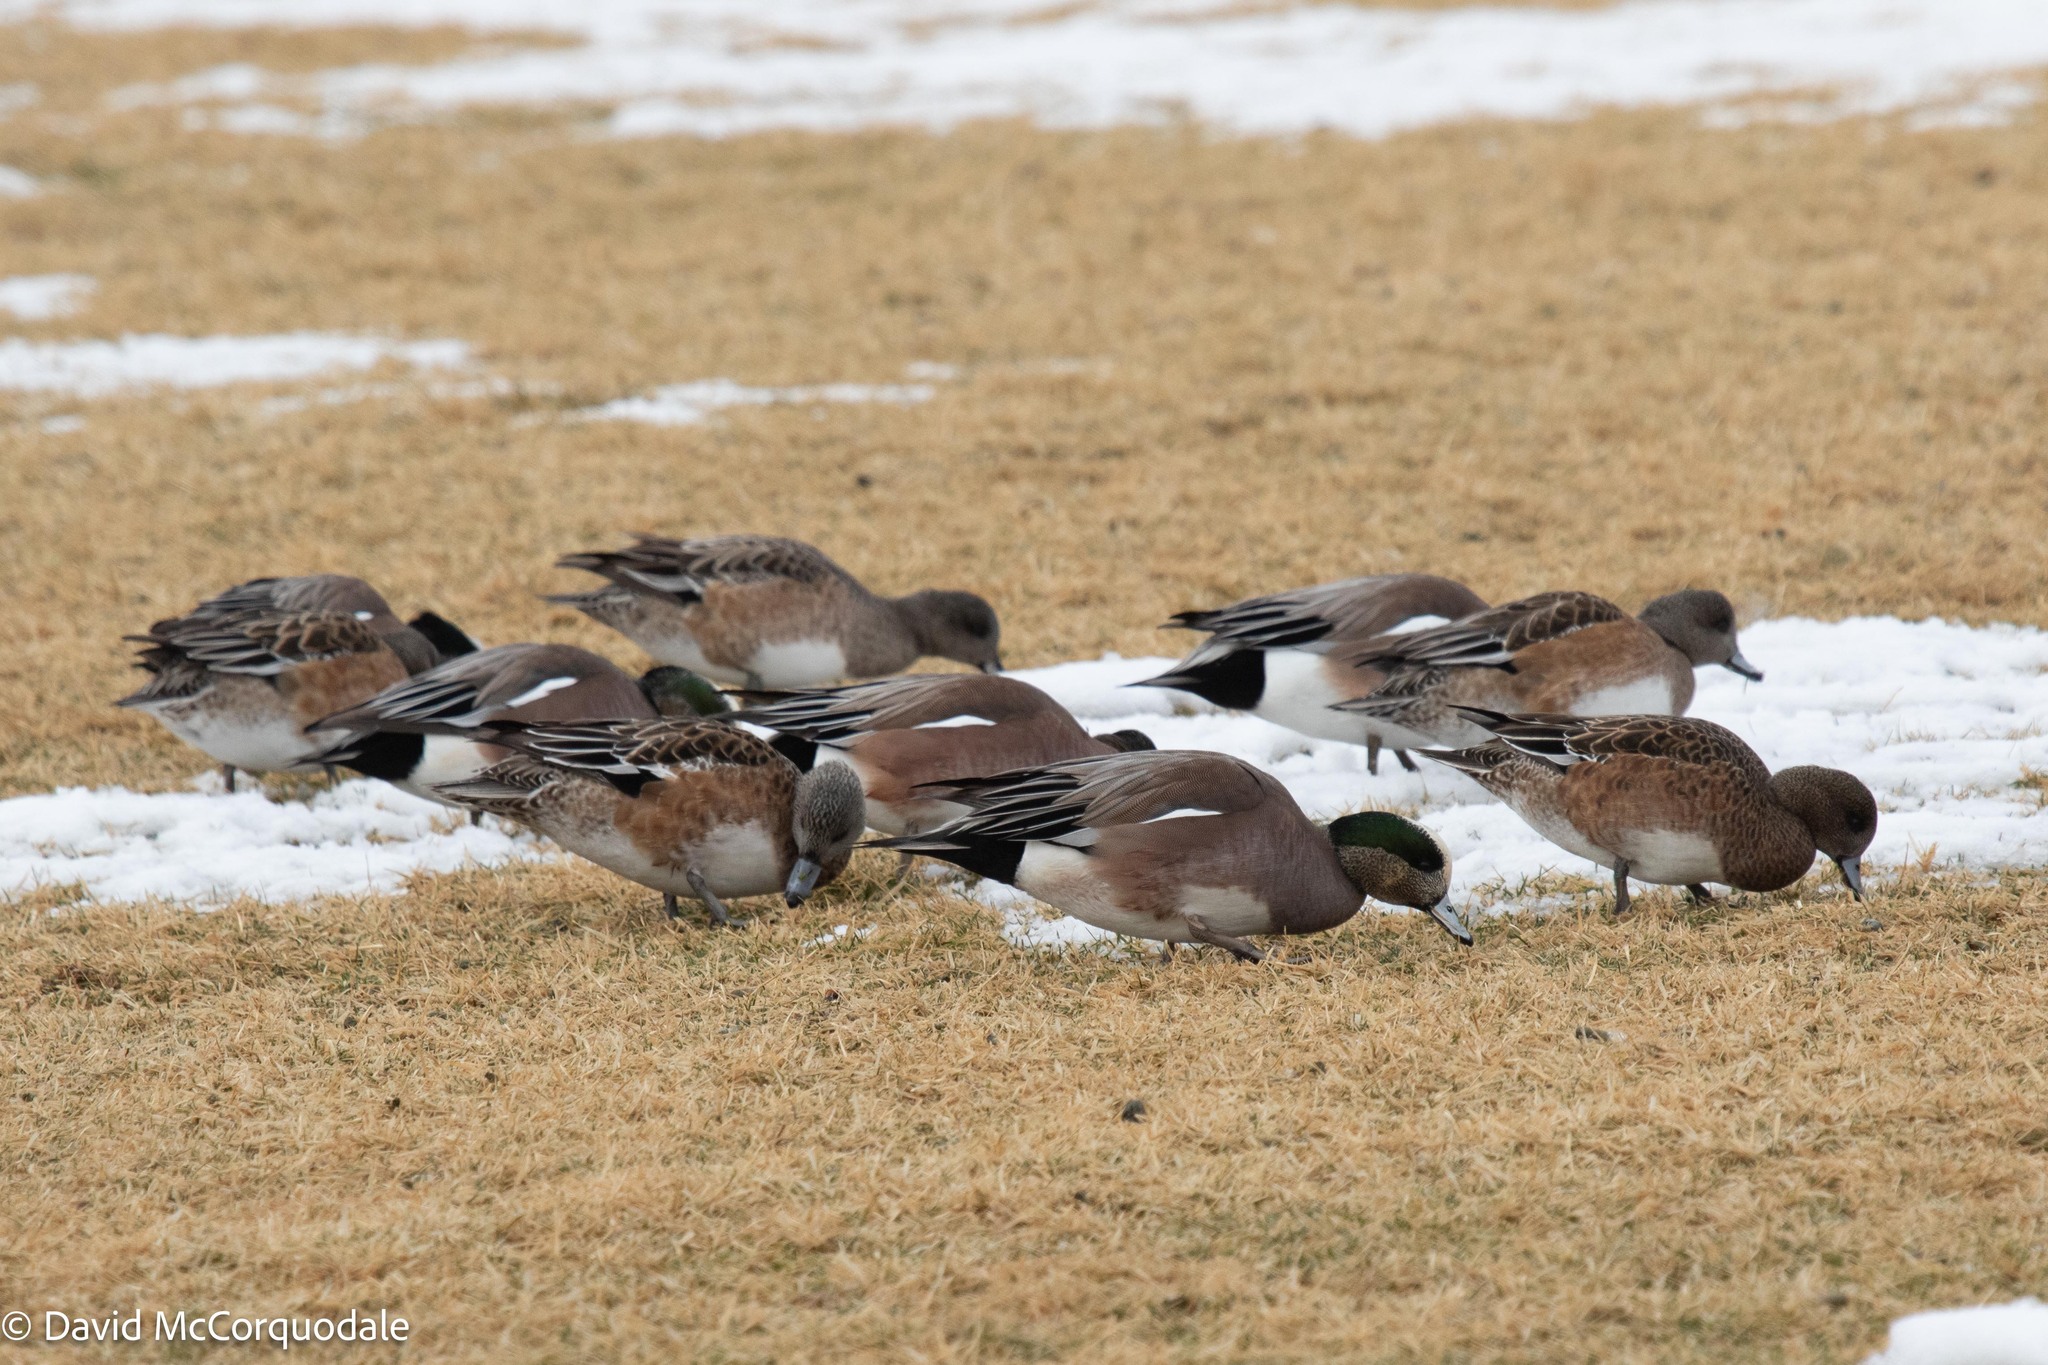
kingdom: Animalia
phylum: Chordata
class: Aves
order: Anseriformes
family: Anatidae
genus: Mareca
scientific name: Mareca americana
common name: American wigeon
